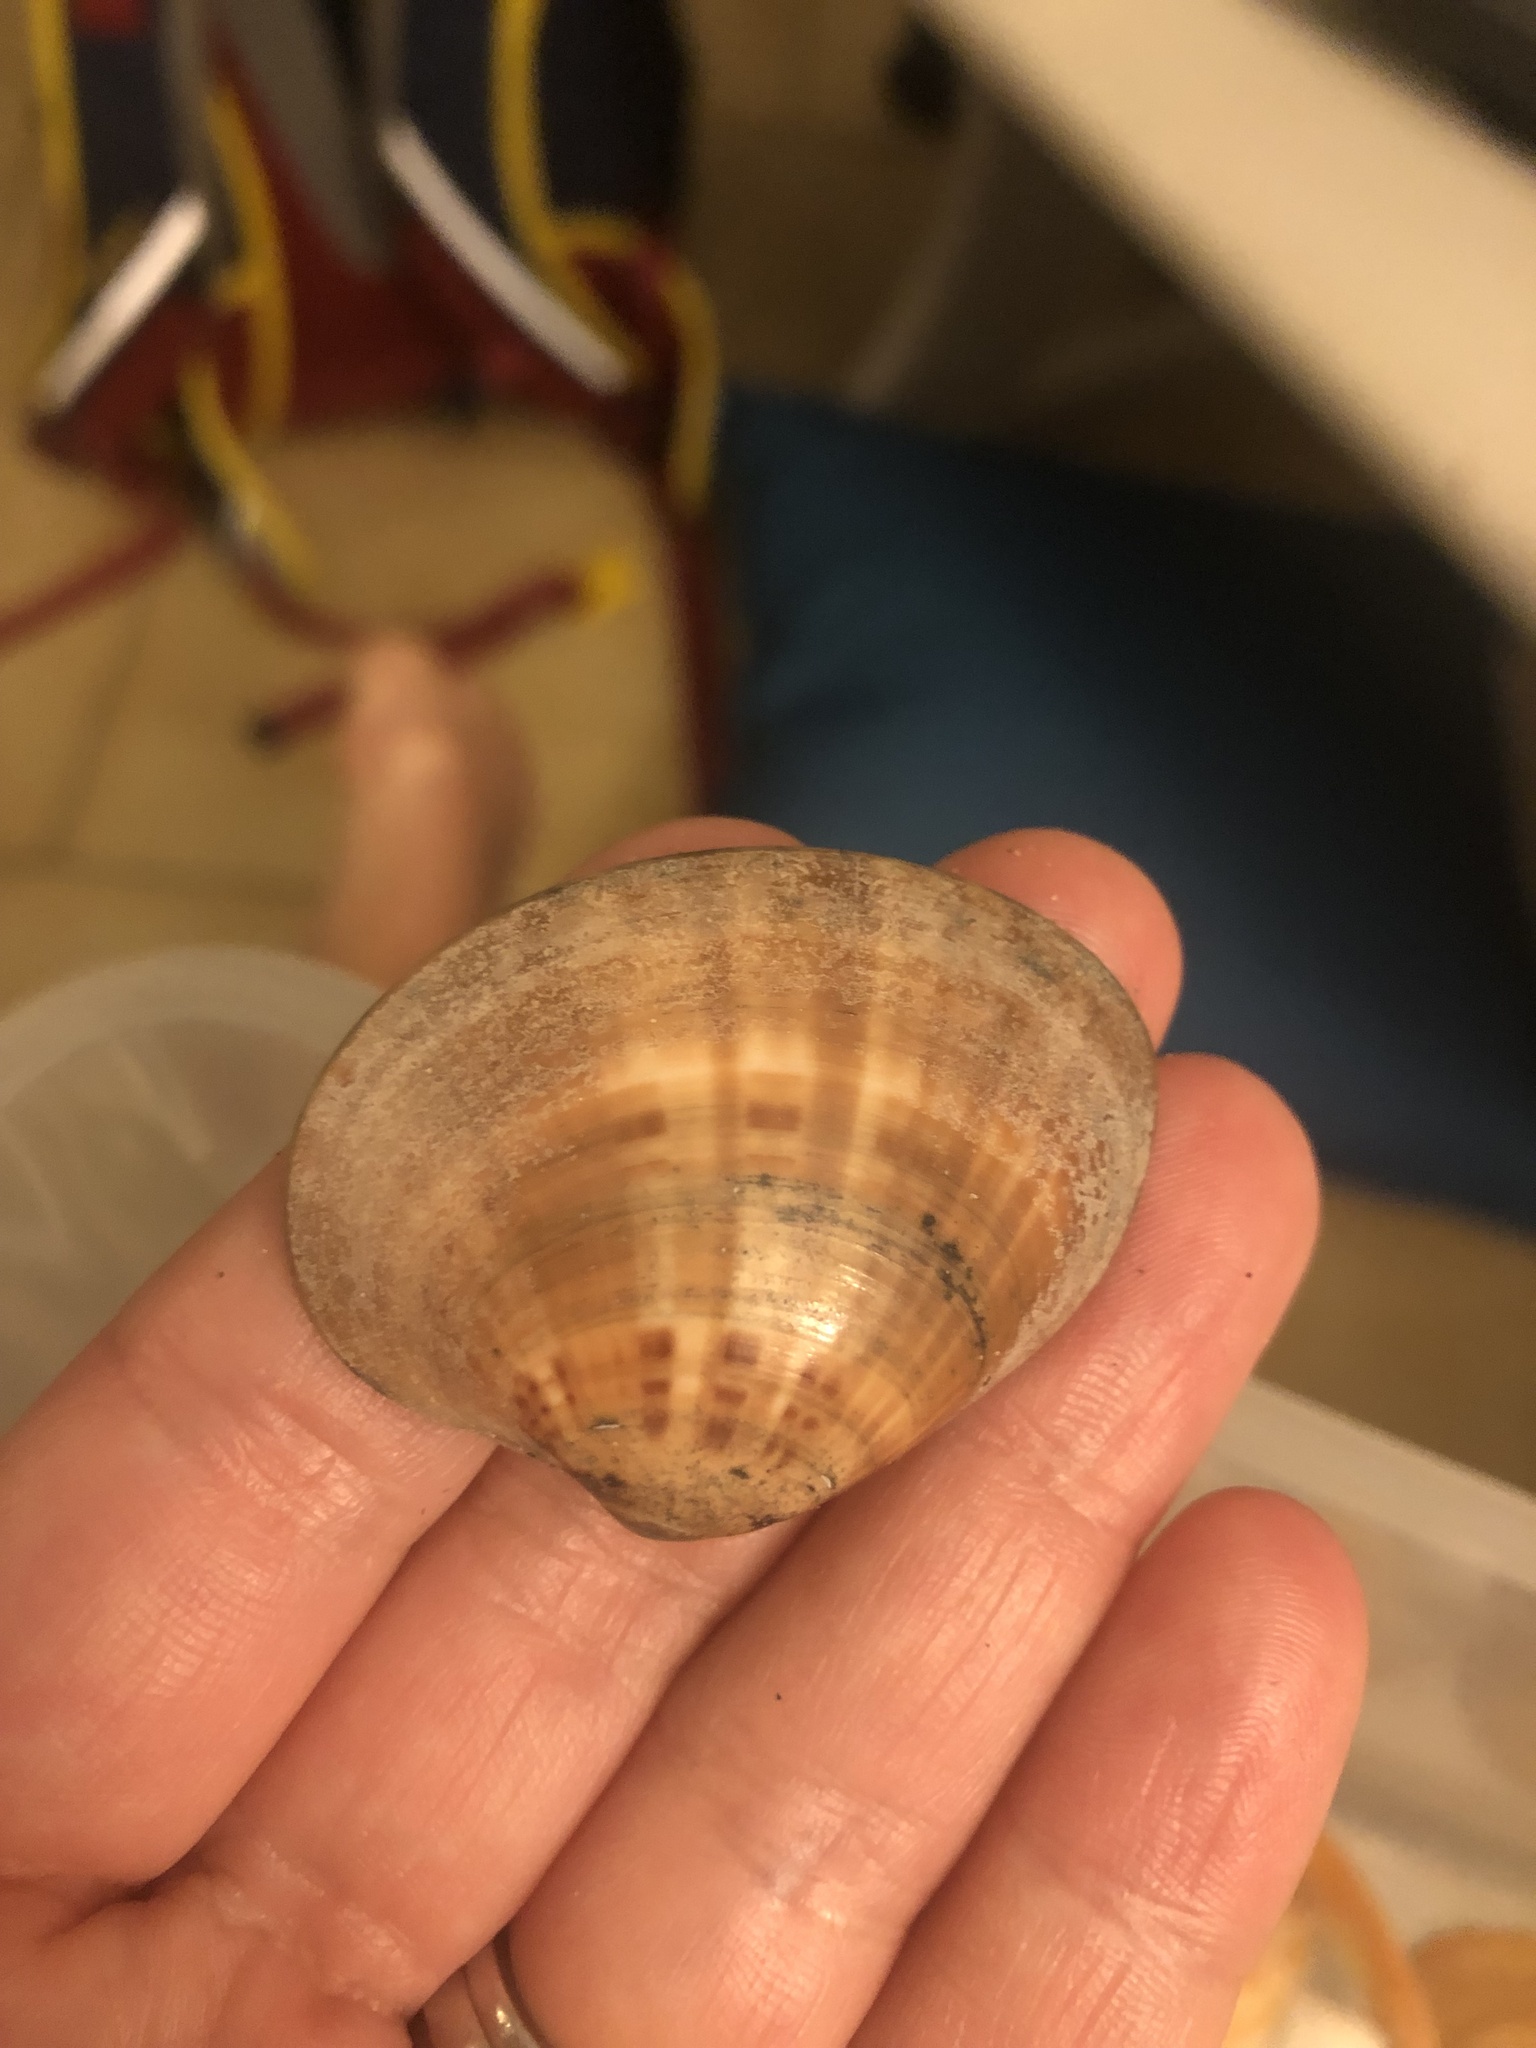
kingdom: Animalia
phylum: Mollusca
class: Bivalvia
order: Venerida
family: Veneridae
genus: Callista
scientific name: Callista chione
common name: Brown venus
